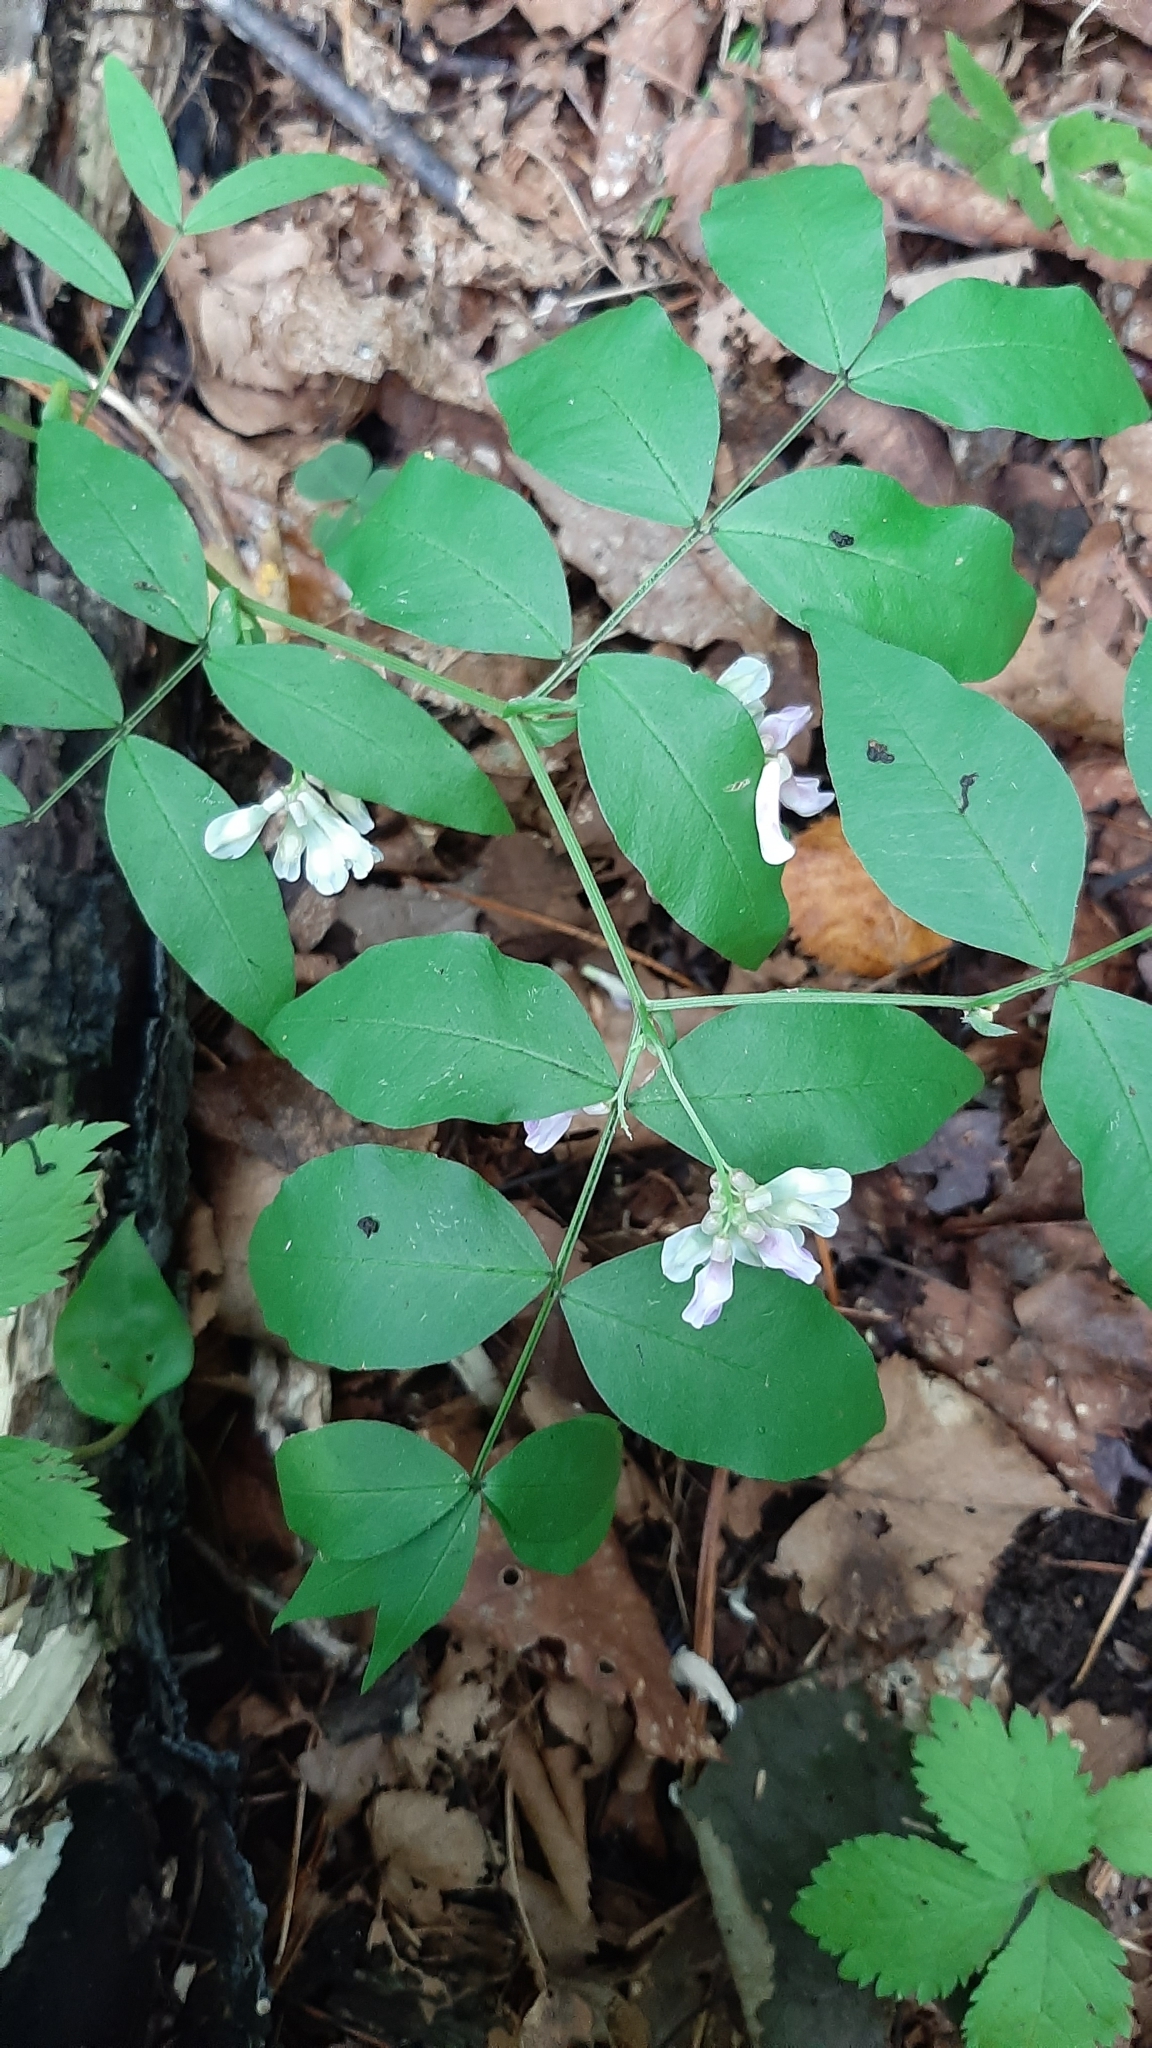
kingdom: Plantae
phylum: Tracheophyta
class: Magnoliopsida
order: Fabales
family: Fabaceae
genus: Vicia
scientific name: Vicia ramuliflora
